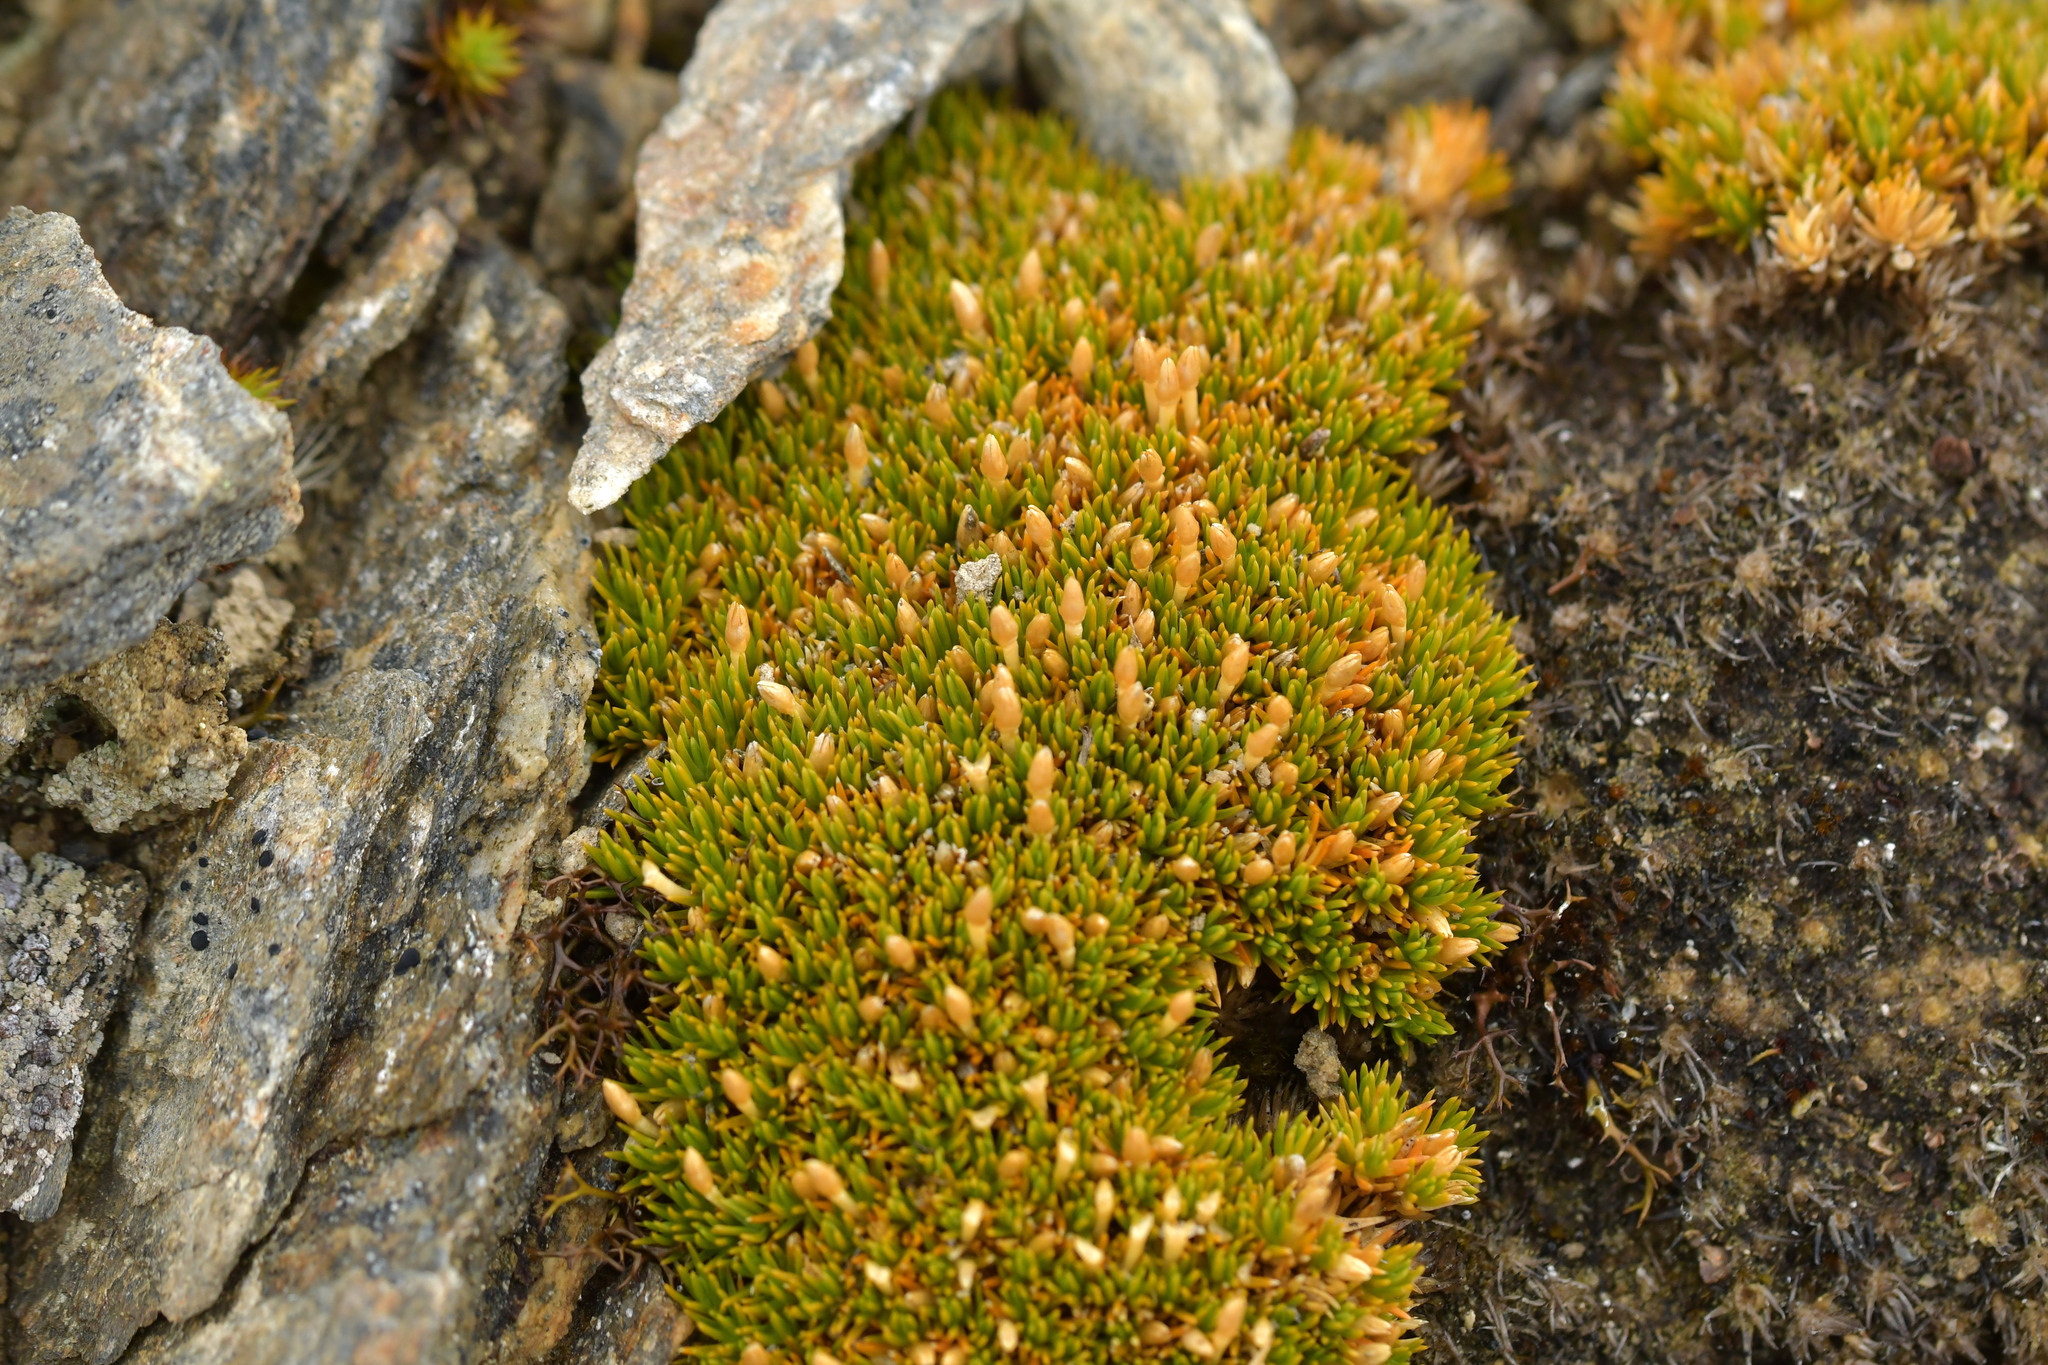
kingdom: Plantae
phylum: Tracheophyta
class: Magnoliopsida
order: Caryophyllales
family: Caryophyllaceae
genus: Scleranthus
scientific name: Scleranthus uniflorus
